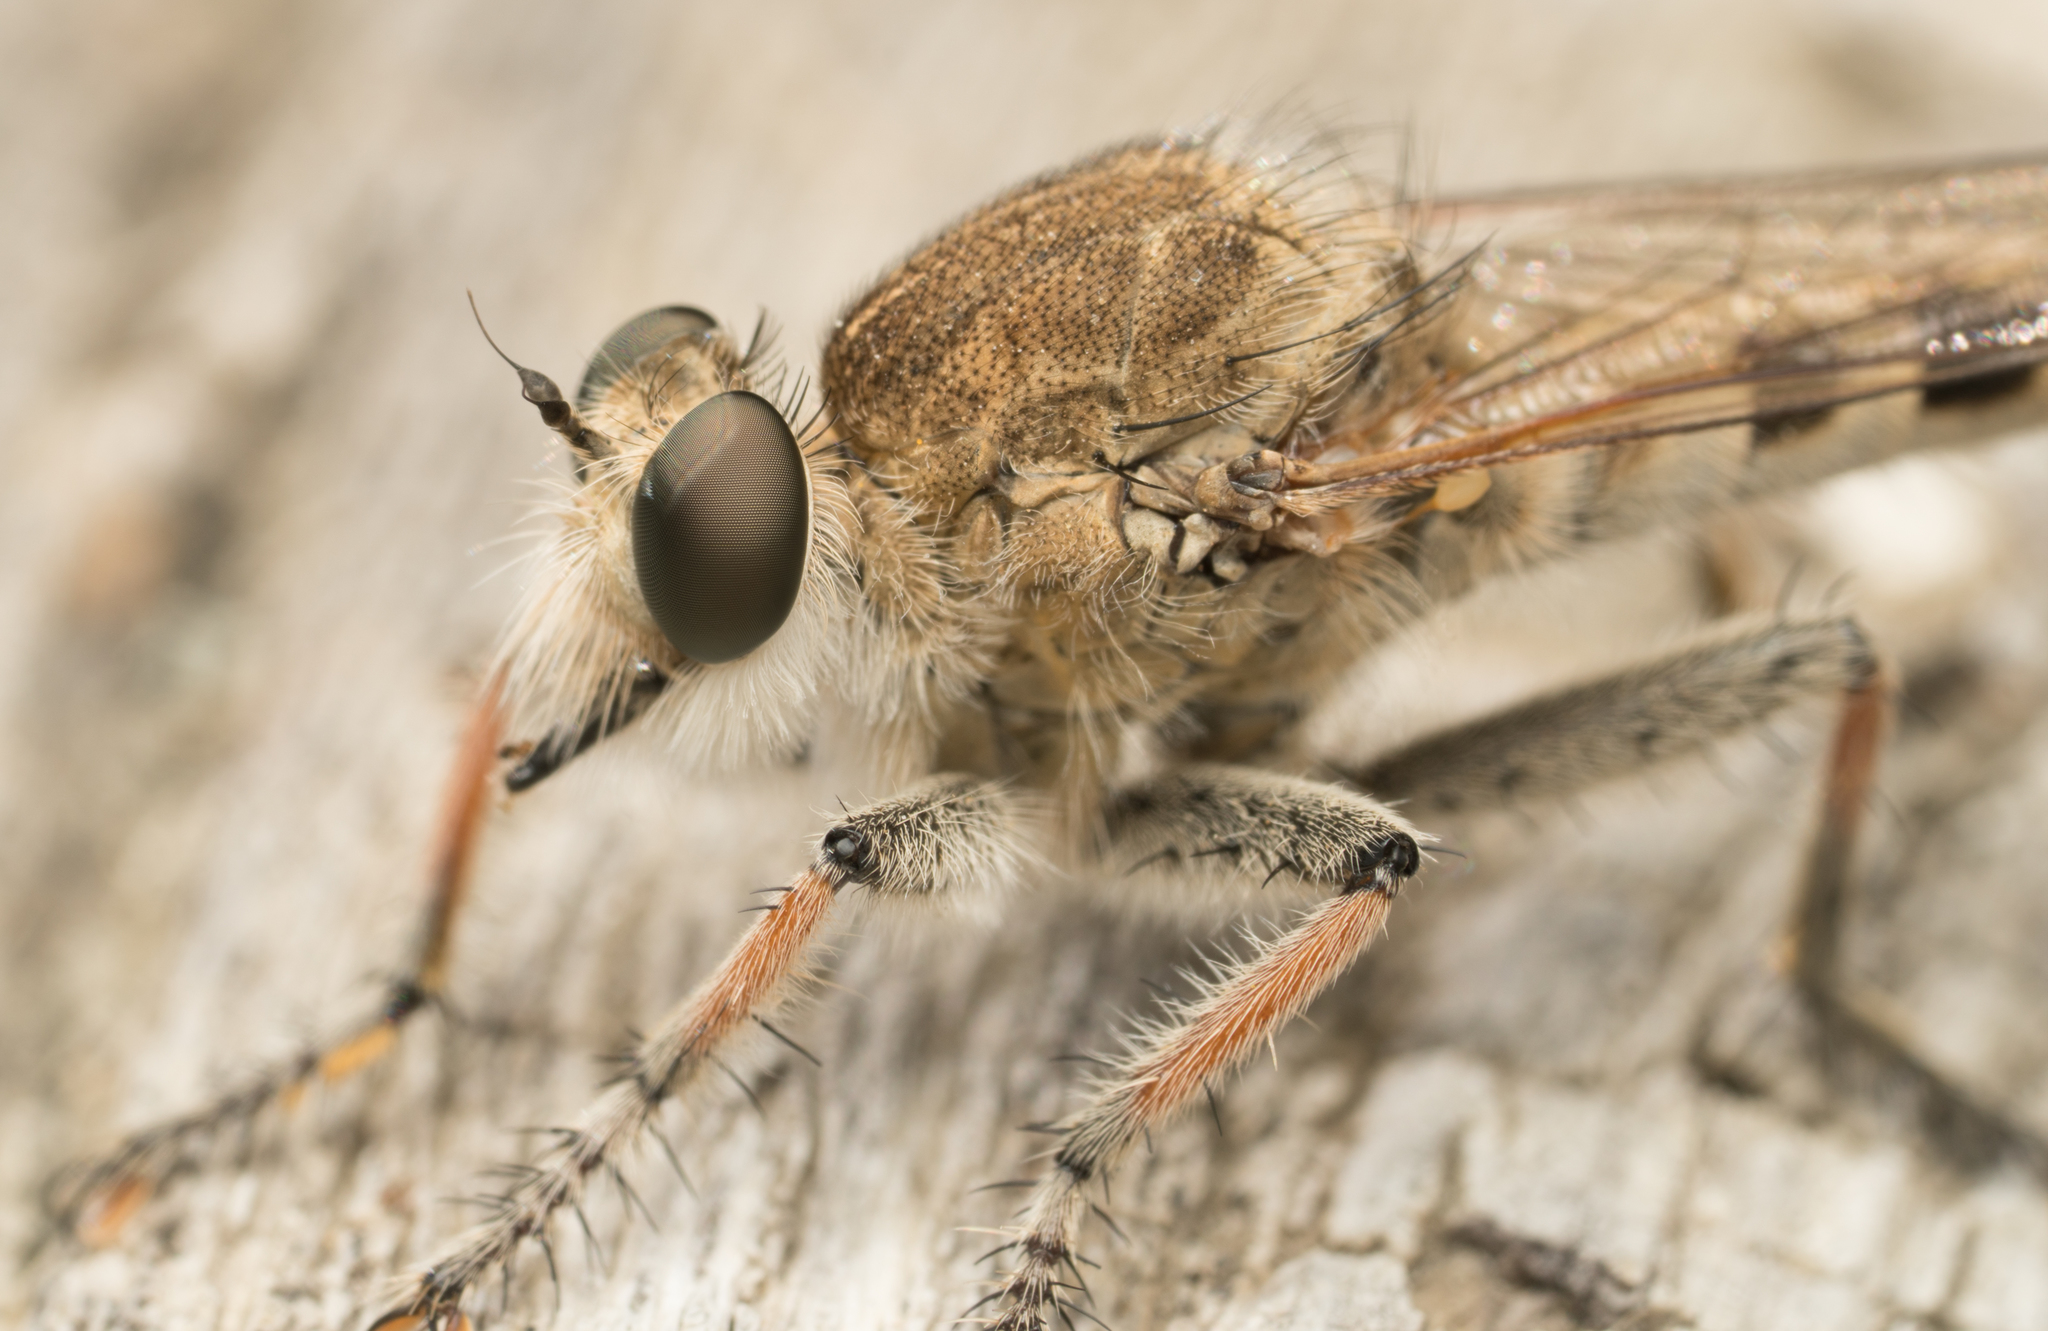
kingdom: Animalia
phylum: Arthropoda
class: Insecta
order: Diptera
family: Asilidae
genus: Efferia
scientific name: Efferia albibarbis
